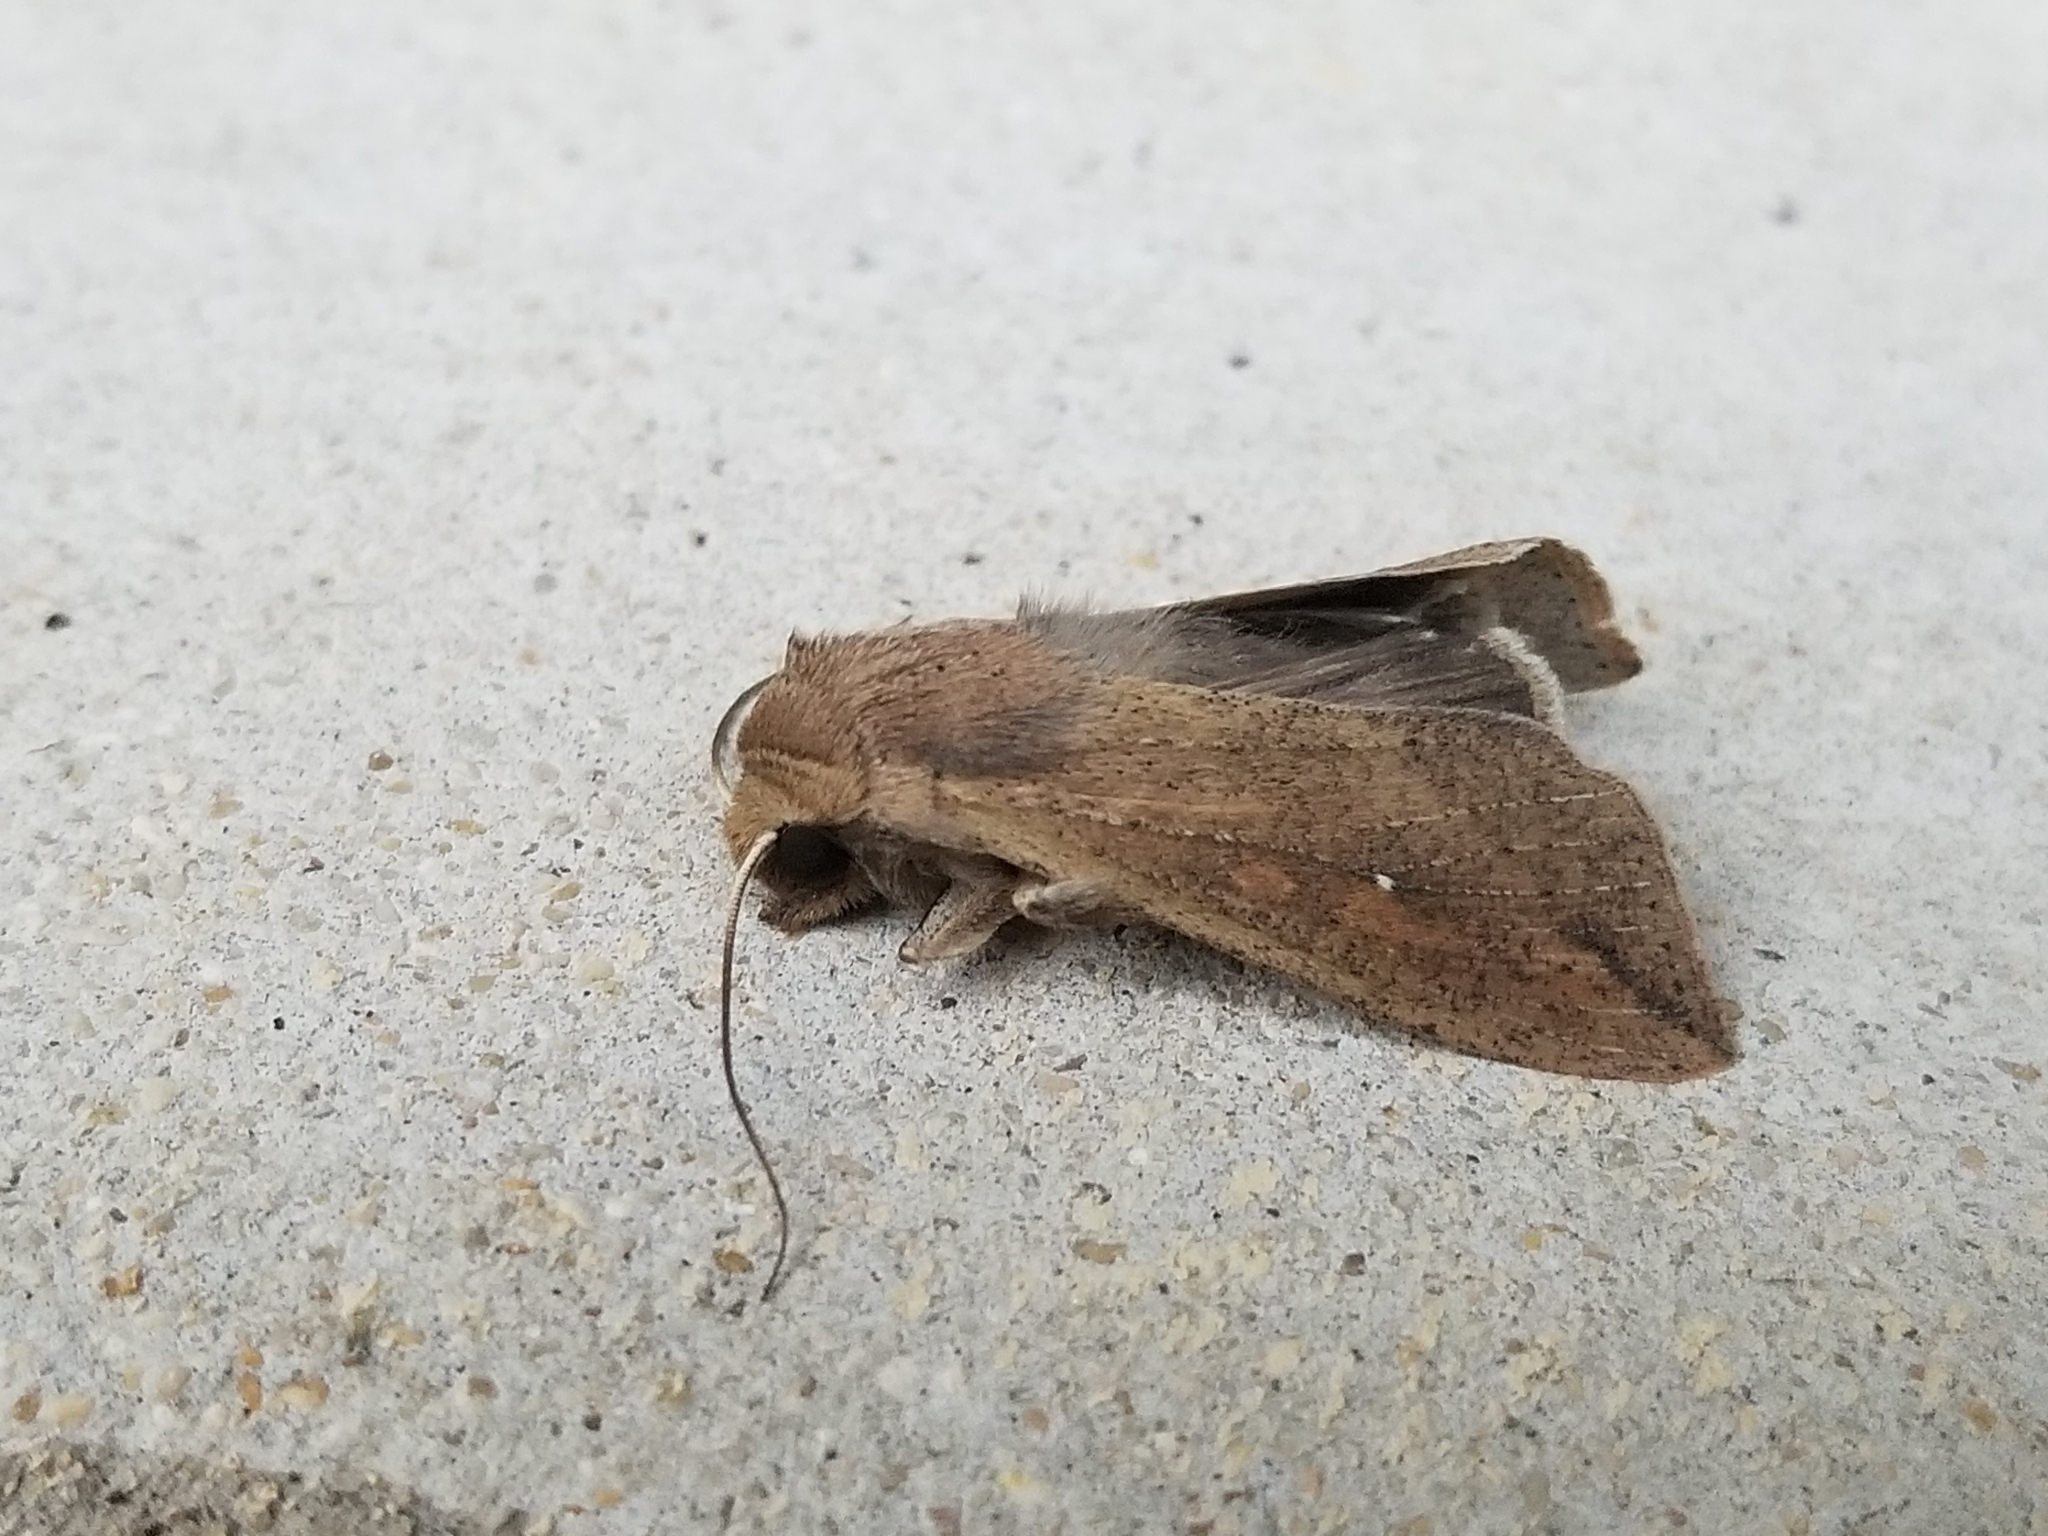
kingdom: Animalia
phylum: Arthropoda
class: Insecta
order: Lepidoptera
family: Noctuidae
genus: Mythimna
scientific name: Mythimna unipuncta
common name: White-speck
